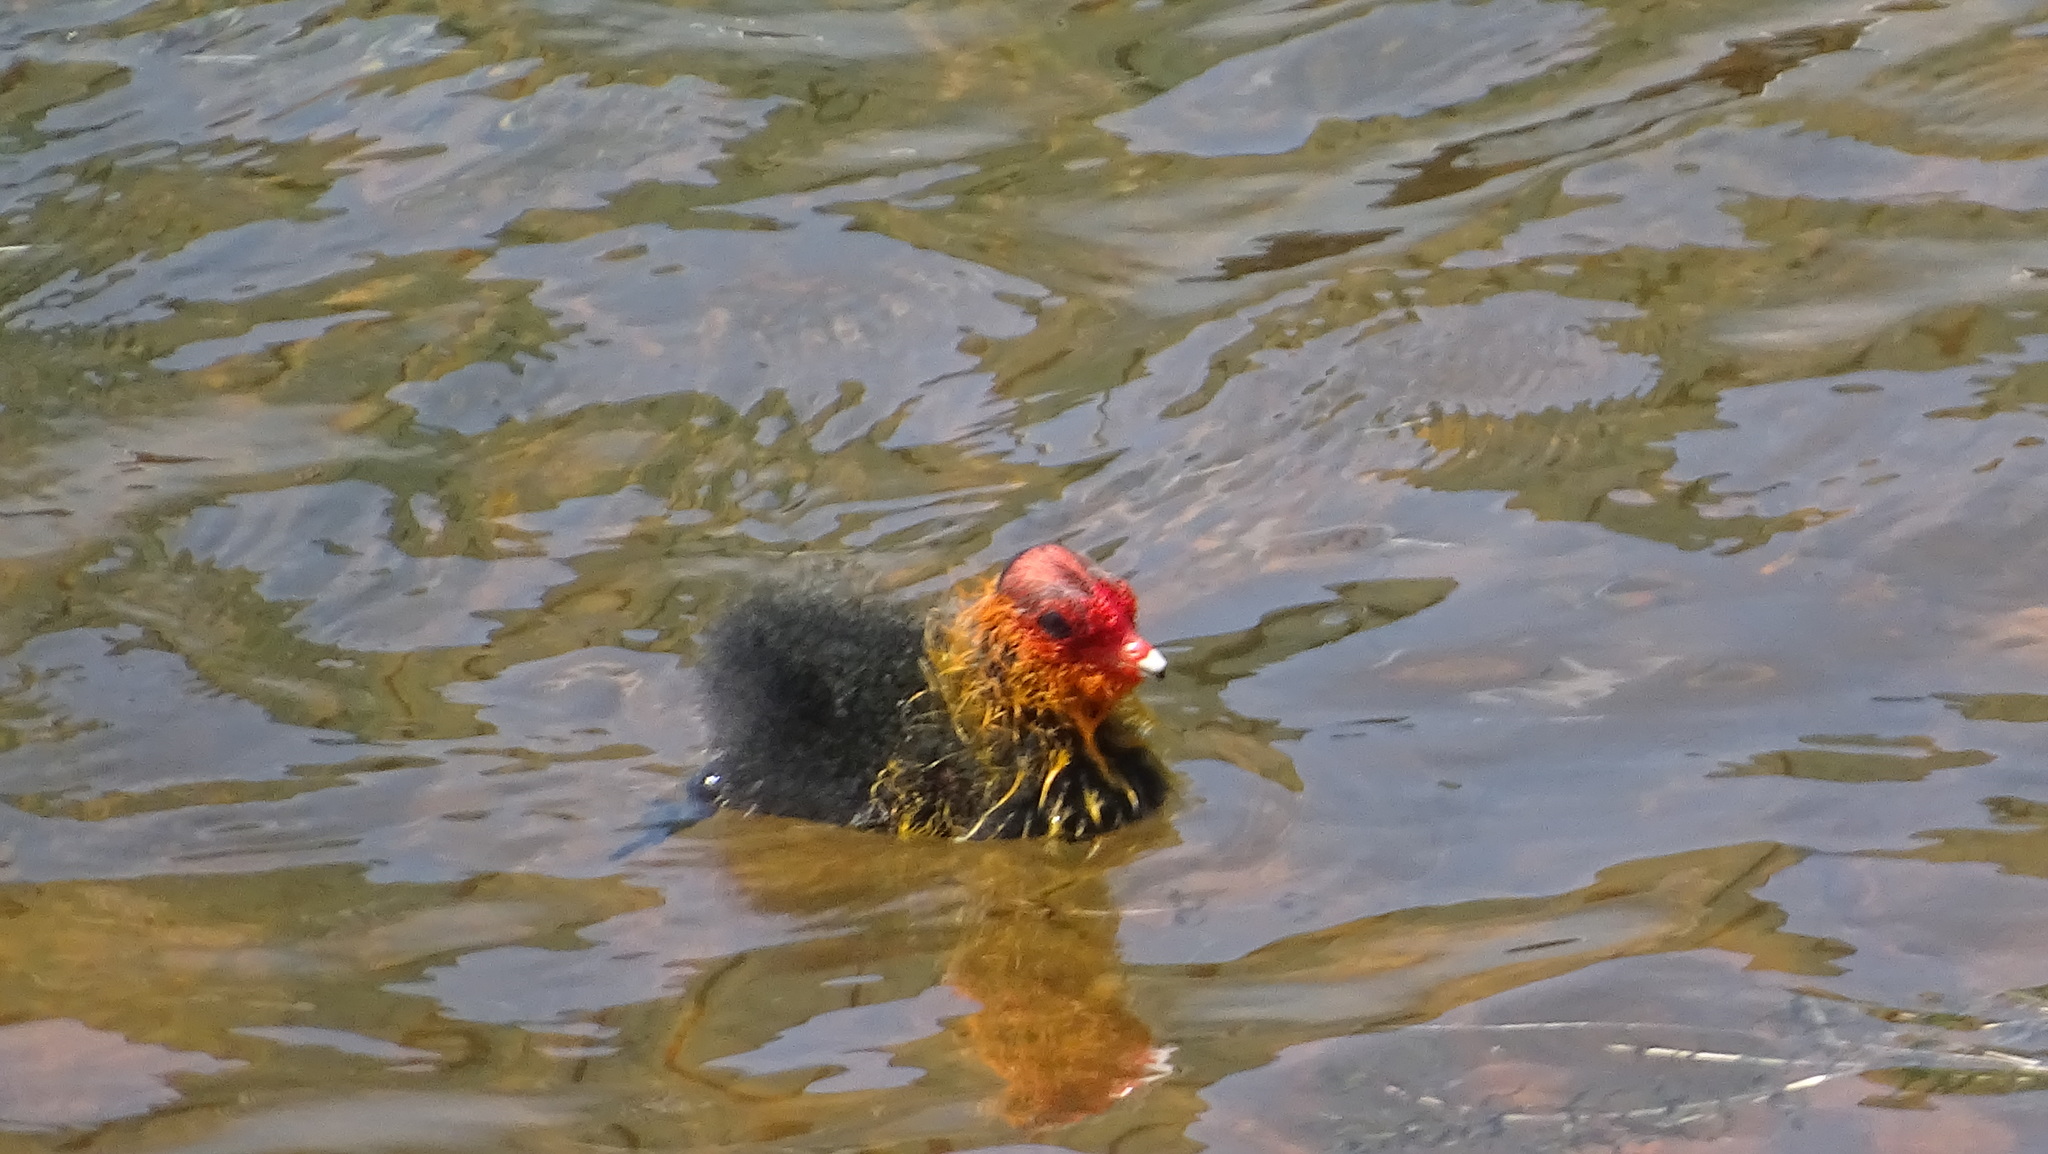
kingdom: Animalia
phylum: Chordata
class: Aves
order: Gruiformes
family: Rallidae
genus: Fulica
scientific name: Fulica atra
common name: Eurasian coot
